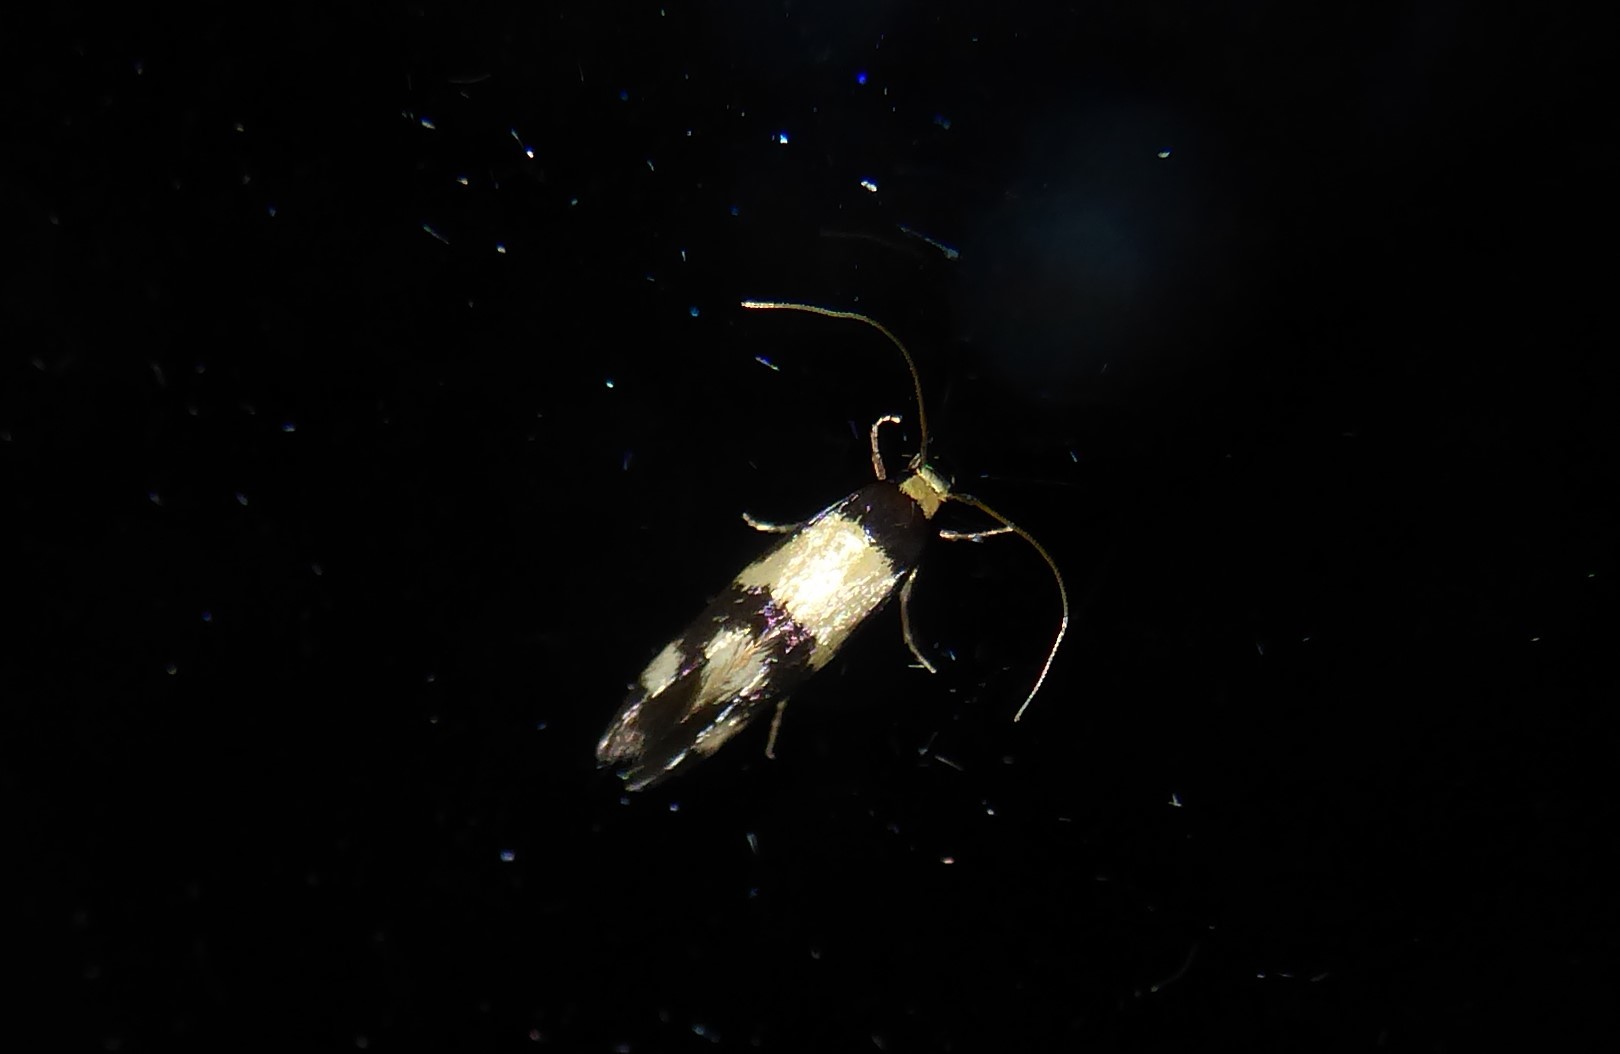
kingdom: Animalia
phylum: Arthropoda
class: Insecta
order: Lepidoptera
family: Tineidae
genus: Opogona
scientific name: Opogona comptella
